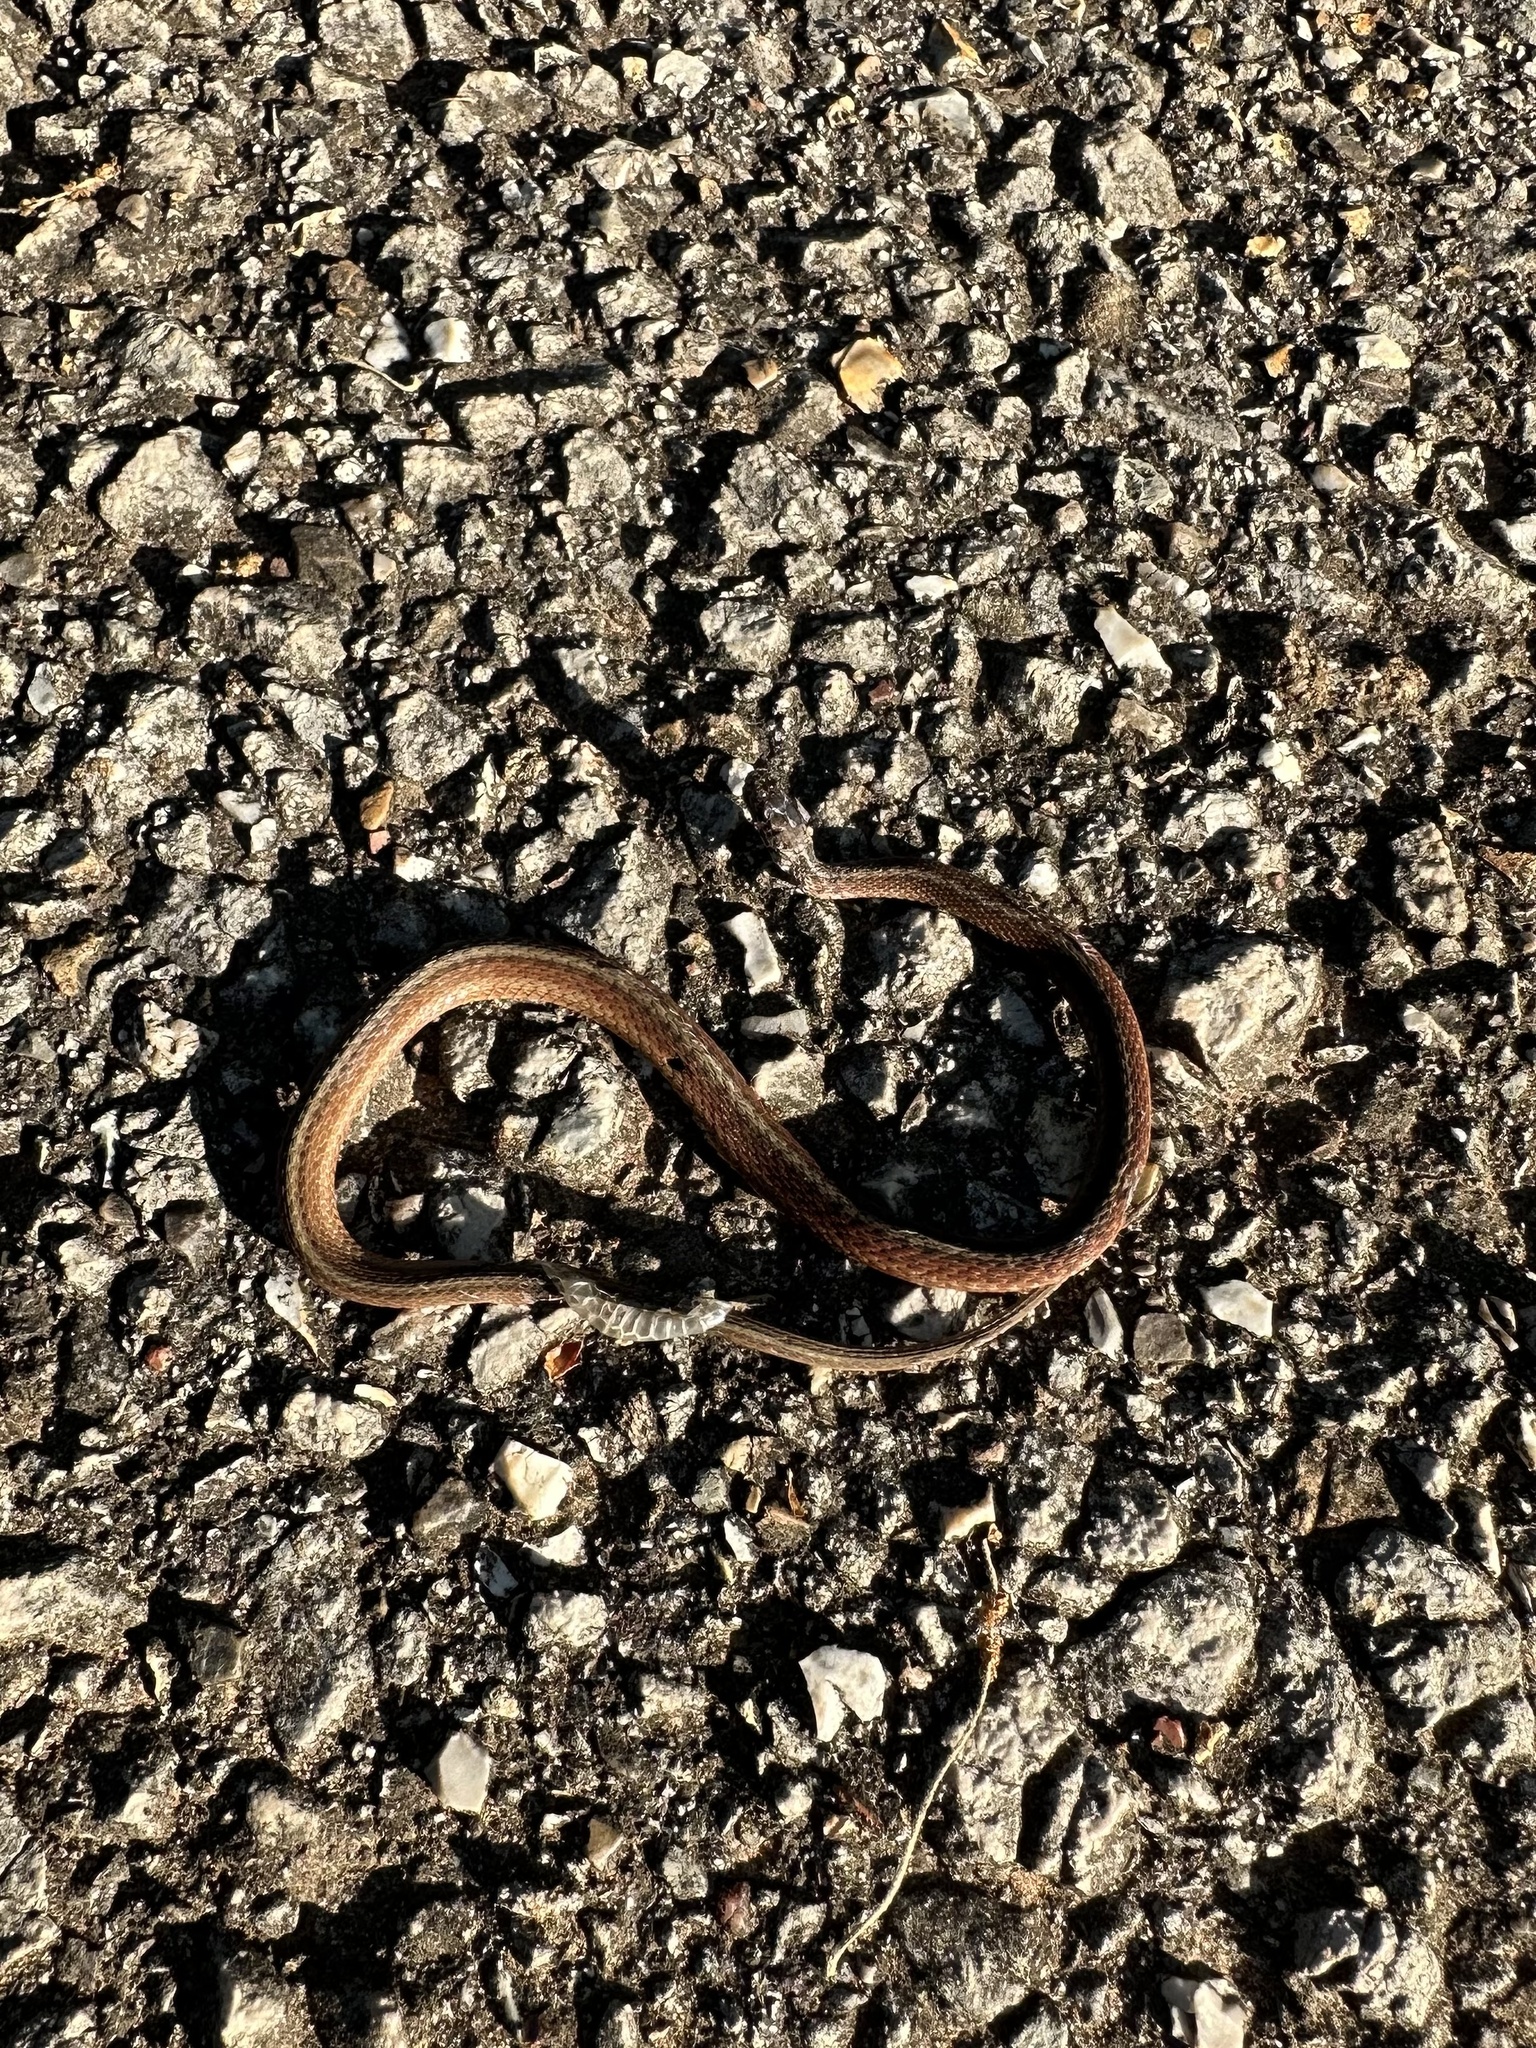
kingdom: Animalia
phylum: Chordata
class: Squamata
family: Colubridae
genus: Storeria
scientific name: Storeria dekayi
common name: (dekay’s) brown snake
